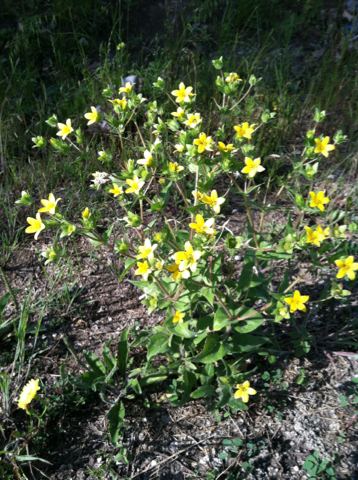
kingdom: Plantae
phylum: Tracheophyta
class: Magnoliopsida
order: Asterales
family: Asteraceae
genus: Lindheimera
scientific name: Lindheimera texana
